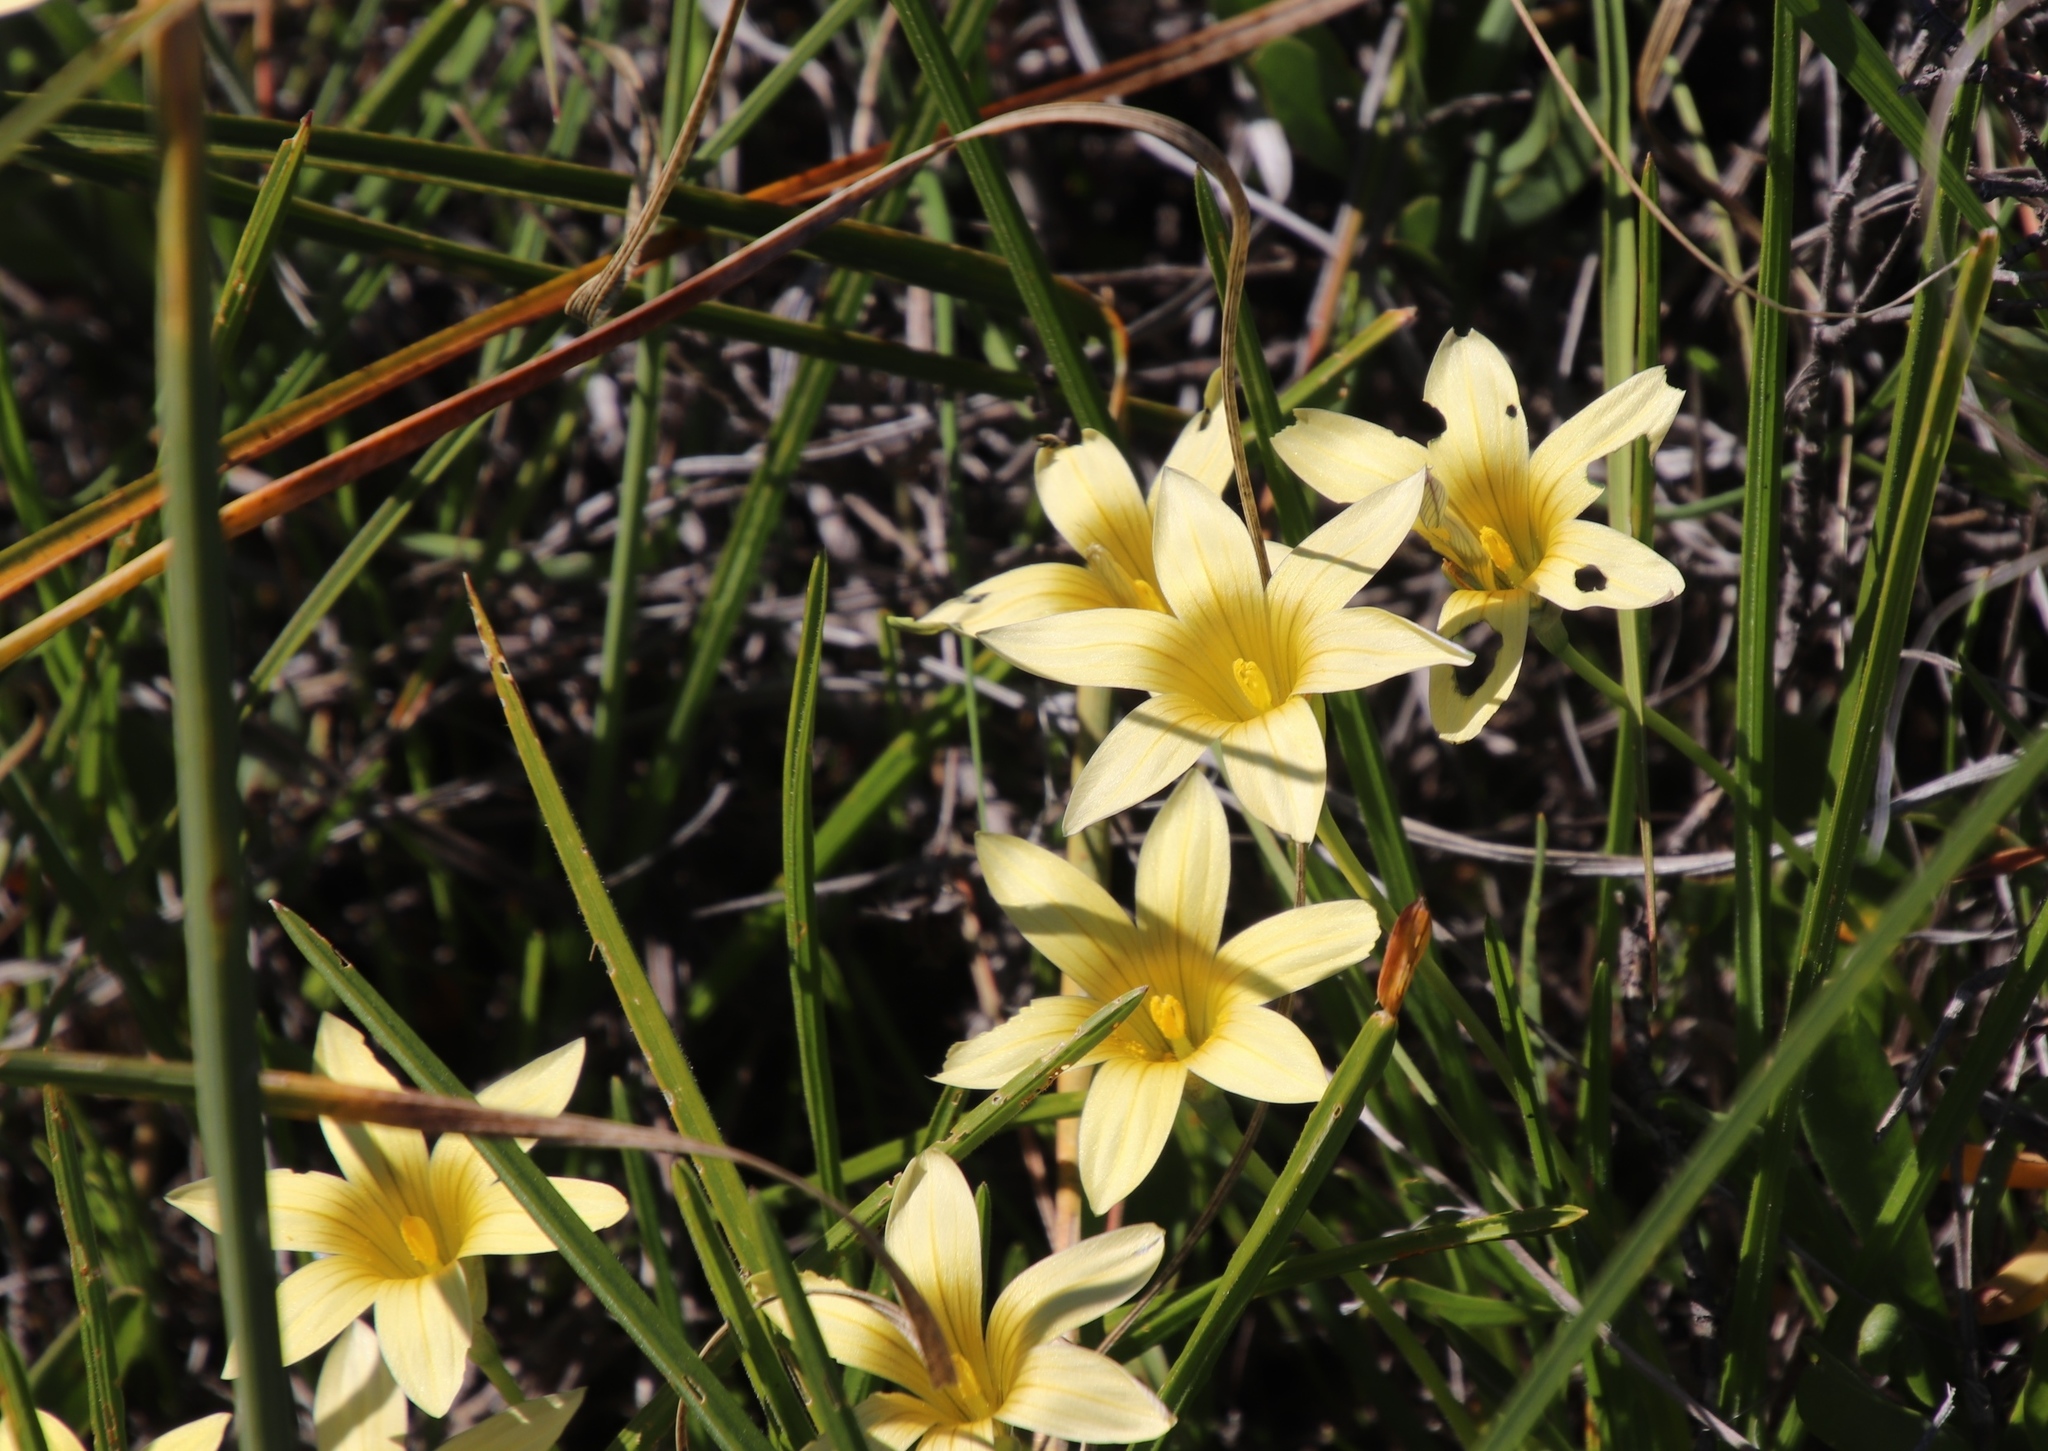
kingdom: Plantae
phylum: Tracheophyta
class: Liliopsida
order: Asparagales
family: Iridaceae
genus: Romulea
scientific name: Romulea hirta
